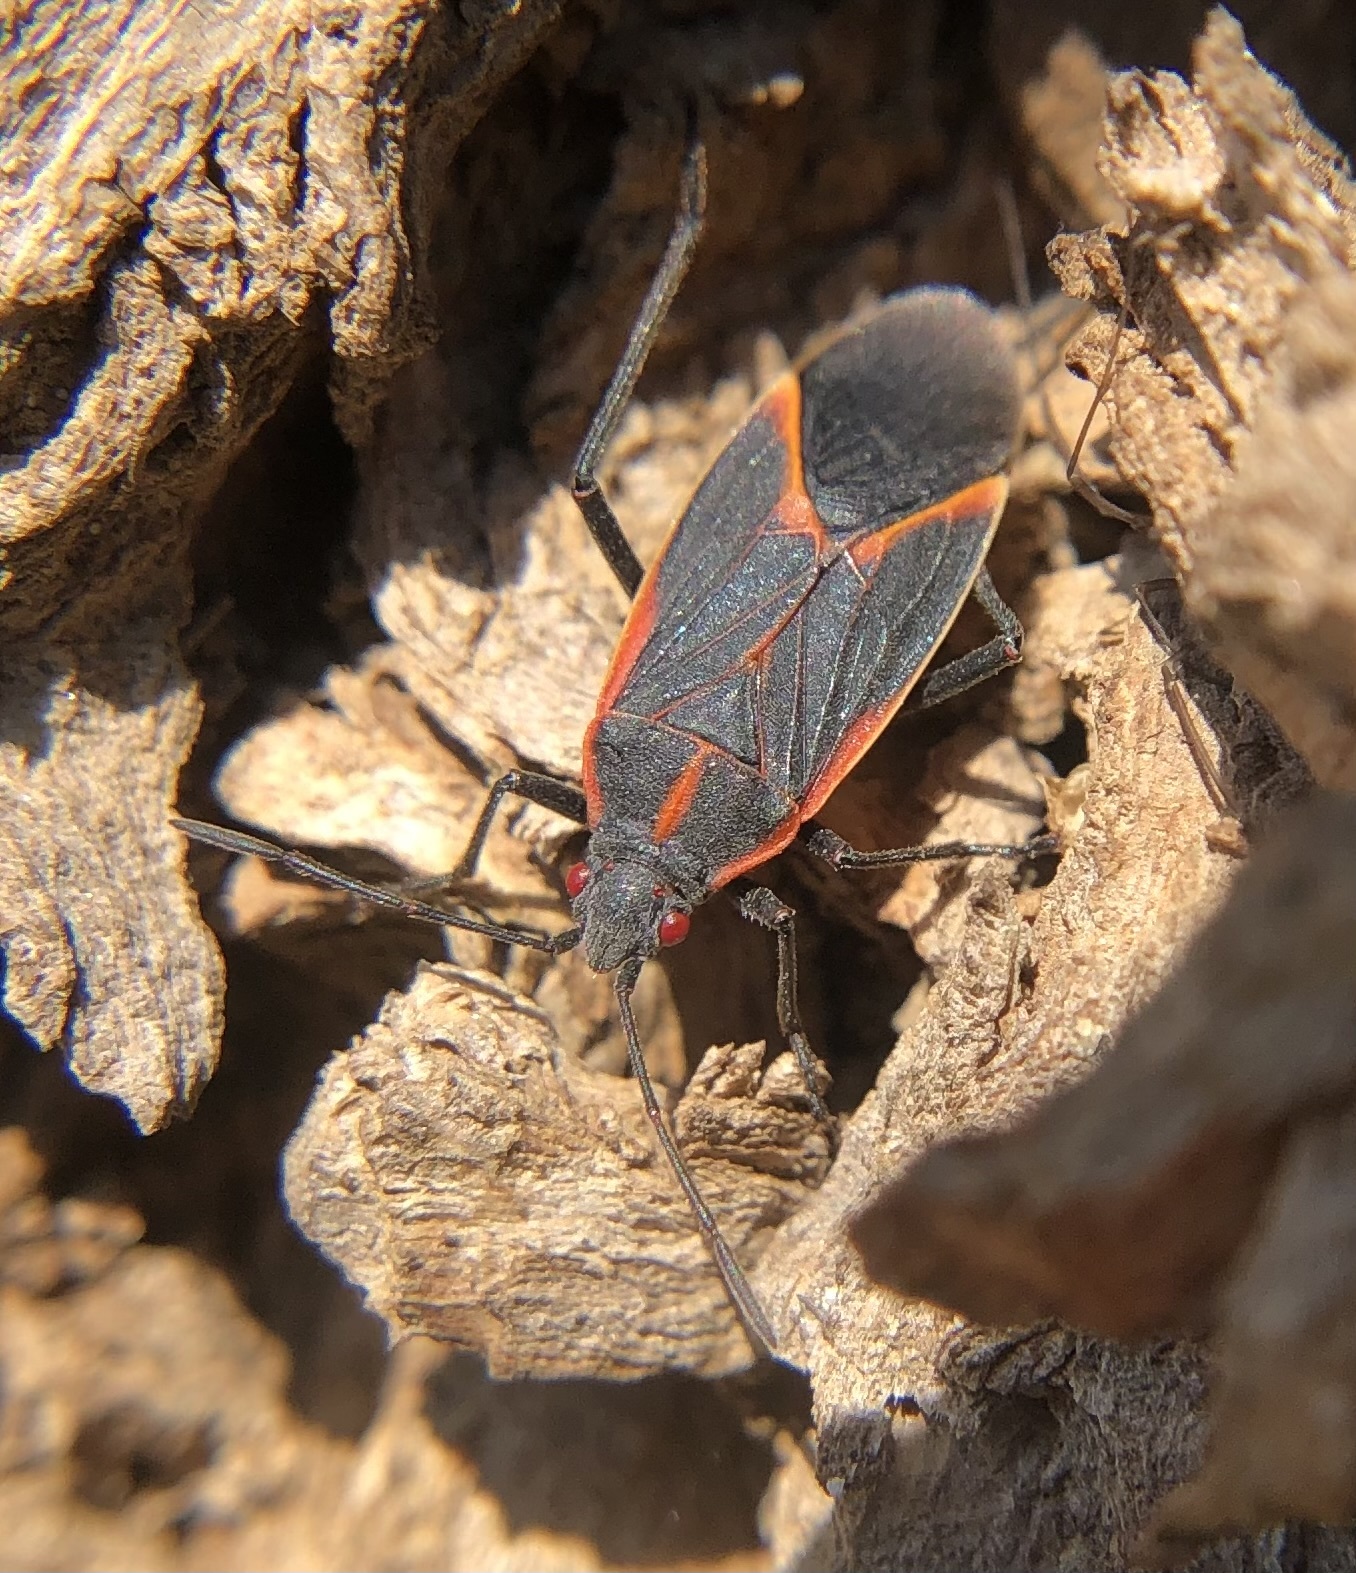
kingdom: Animalia
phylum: Arthropoda
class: Insecta
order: Hemiptera
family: Rhopalidae
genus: Boisea
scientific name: Boisea trivittata
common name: Boxelder bug
